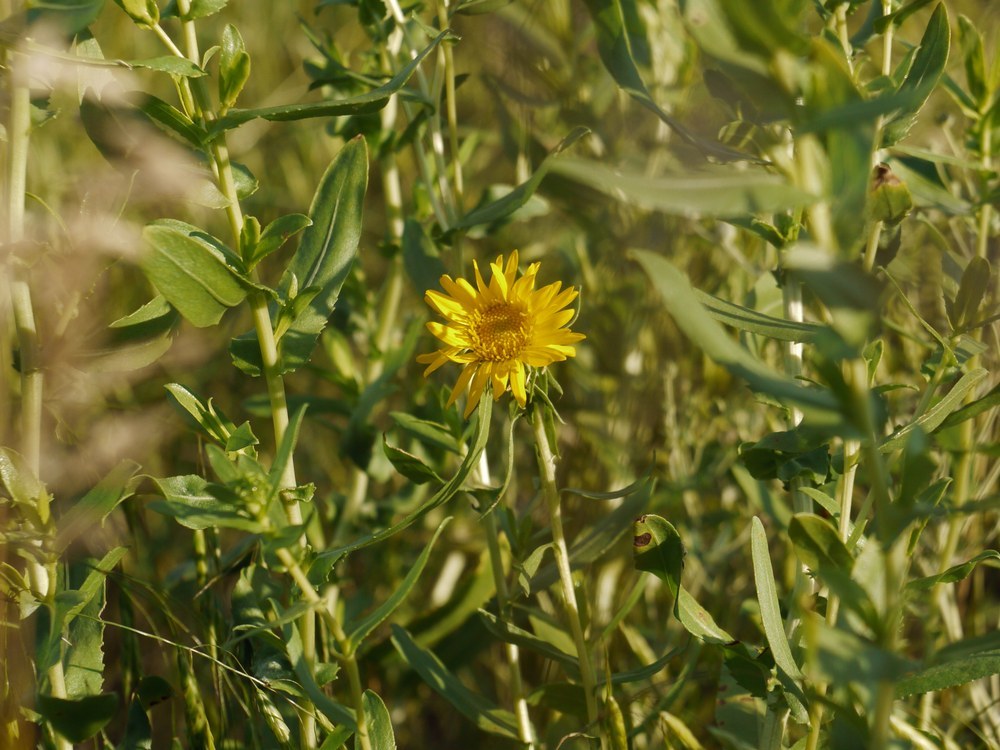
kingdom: Plantae
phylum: Tracheophyta
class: Magnoliopsida
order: Asterales
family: Asteraceae
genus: Grindelia
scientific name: Grindelia squarrosa
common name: Curly-cup gumweed
